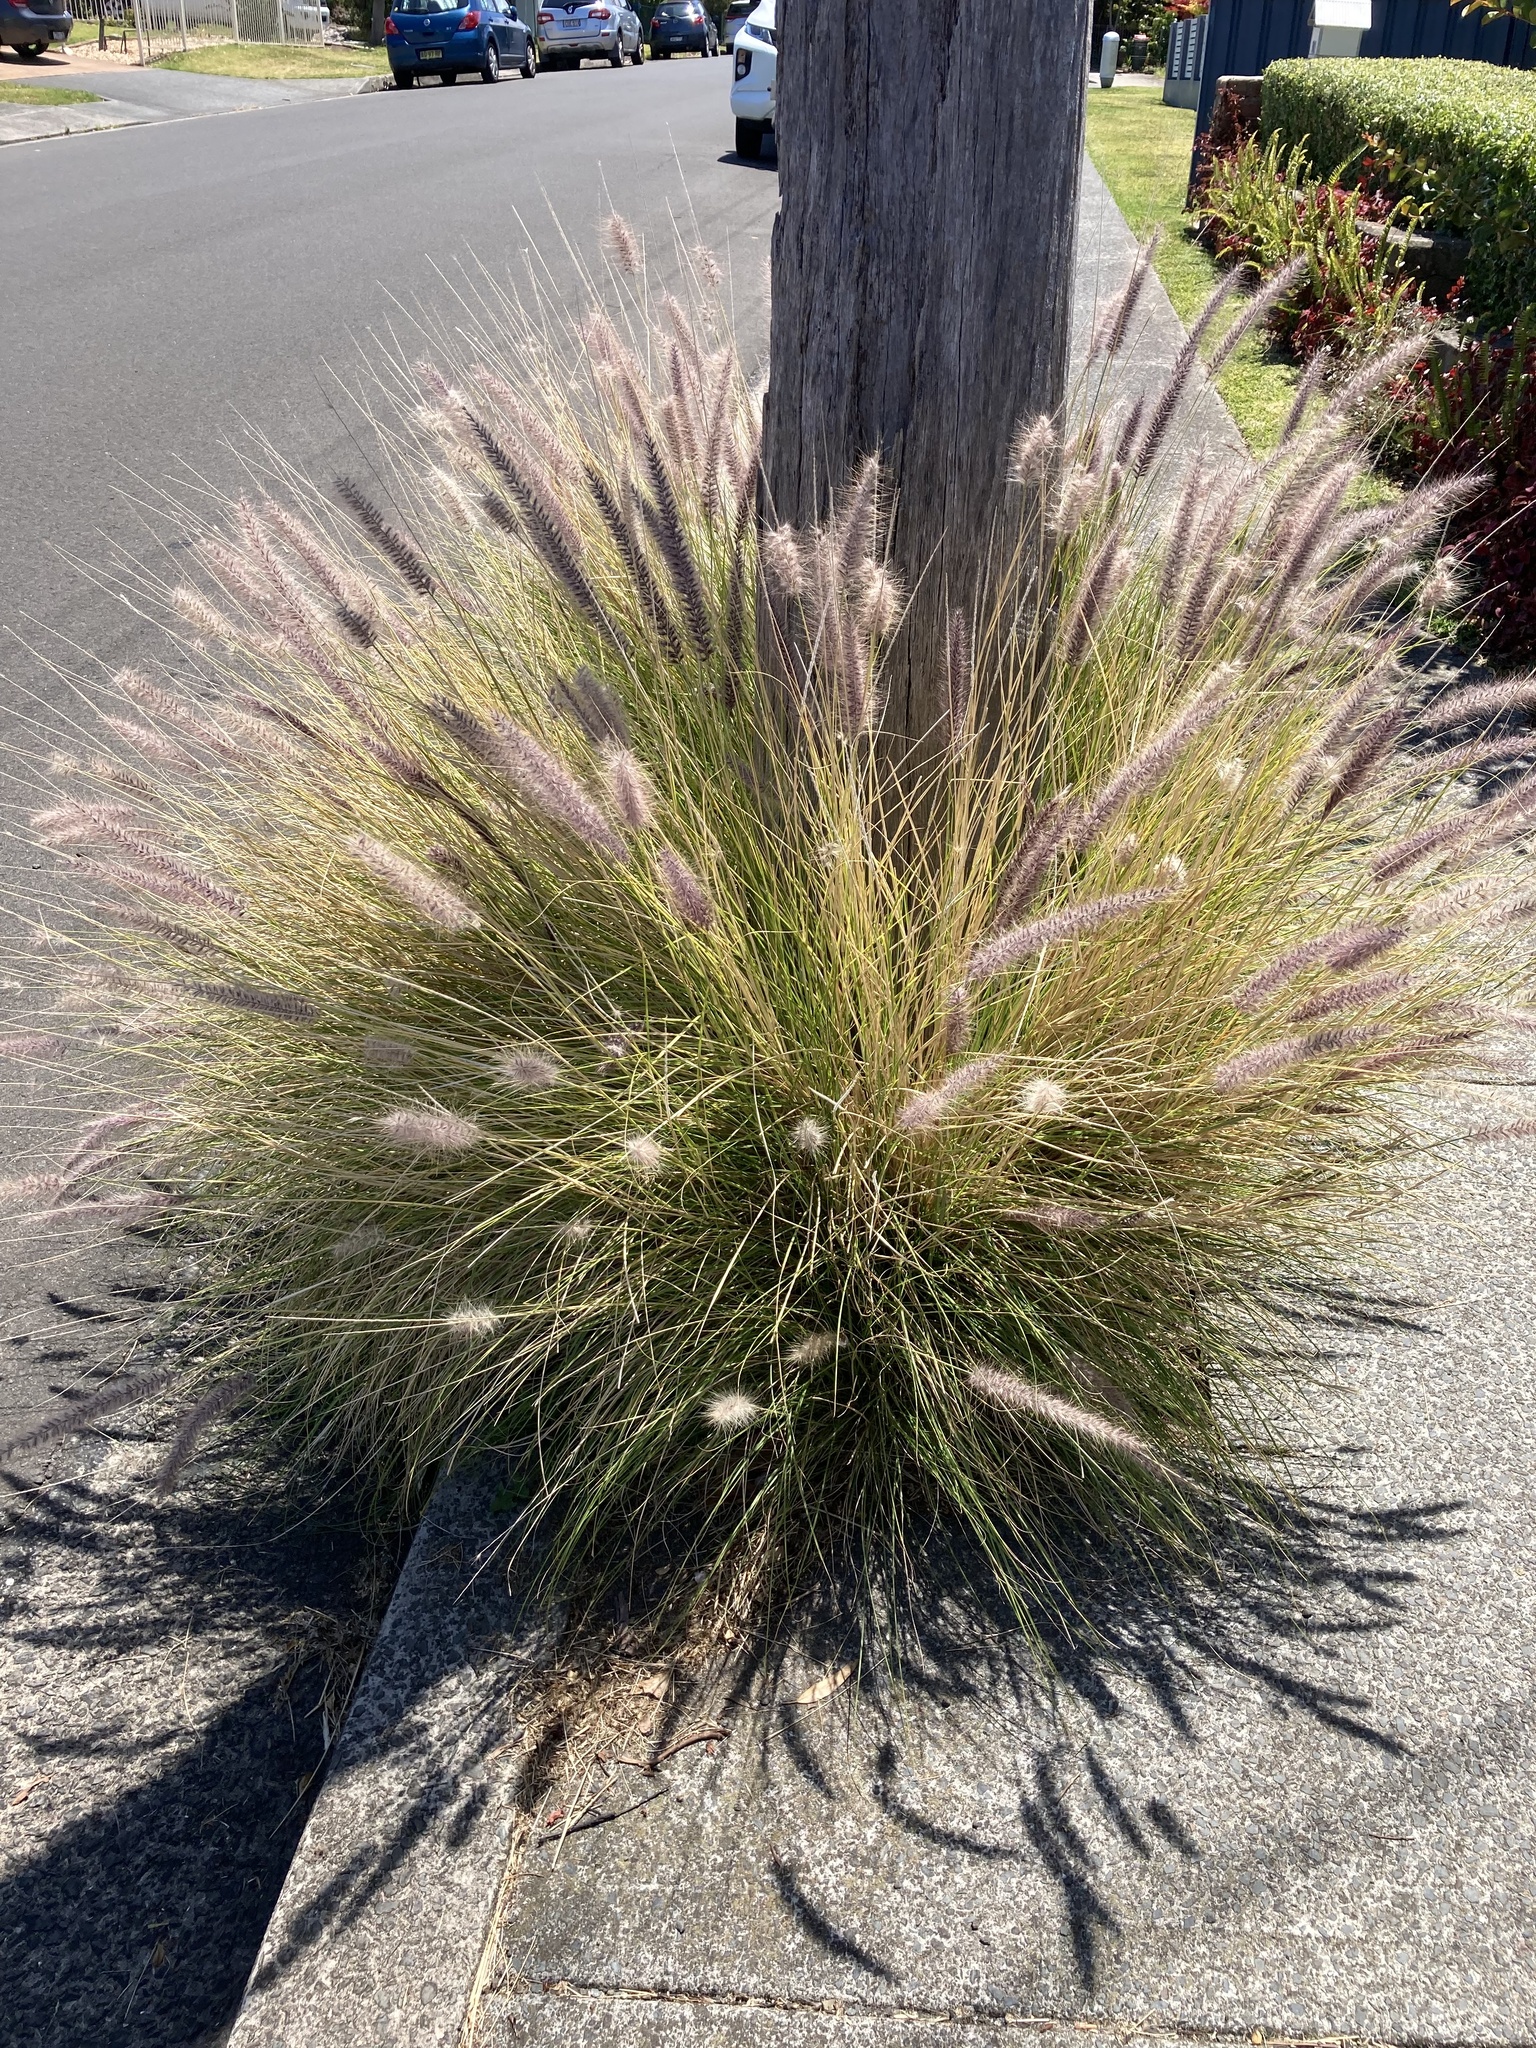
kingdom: Plantae
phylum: Tracheophyta
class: Liliopsida
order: Poales
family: Poaceae
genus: Cenchrus
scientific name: Cenchrus setaceus
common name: Crimson fountaingrass
